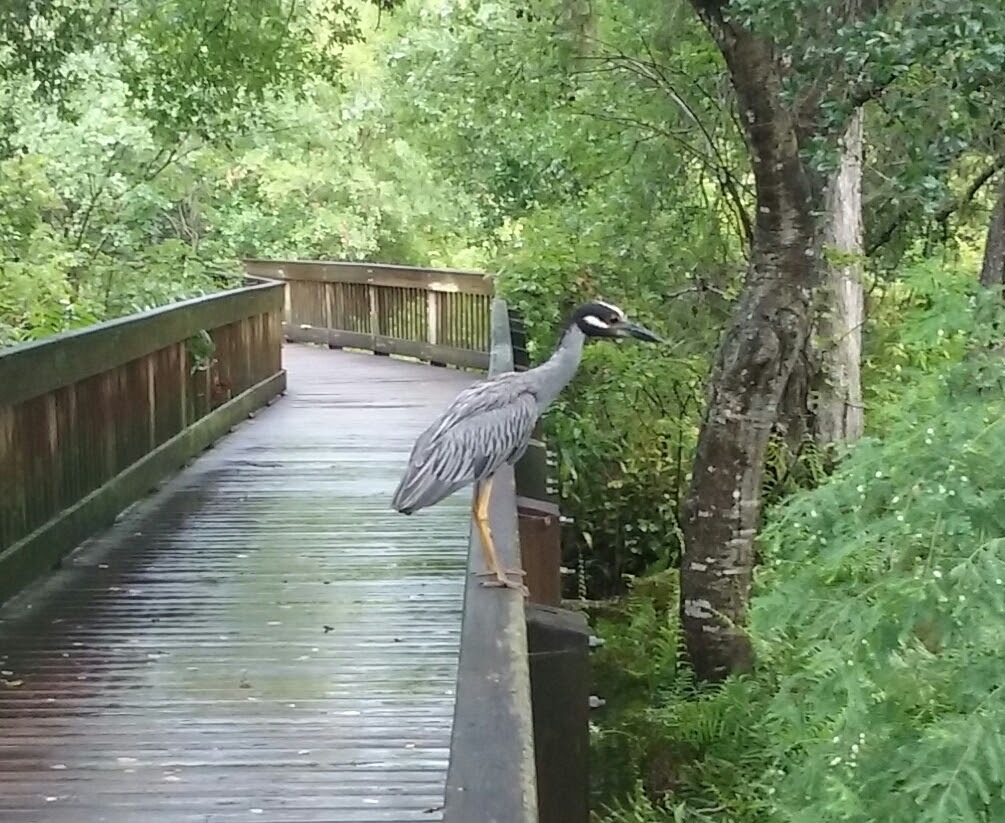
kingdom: Animalia
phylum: Chordata
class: Aves
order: Pelecaniformes
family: Ardeidae
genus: Nyctanassa
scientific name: Nyctanassa violacea
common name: Yellow-crowned night heron
